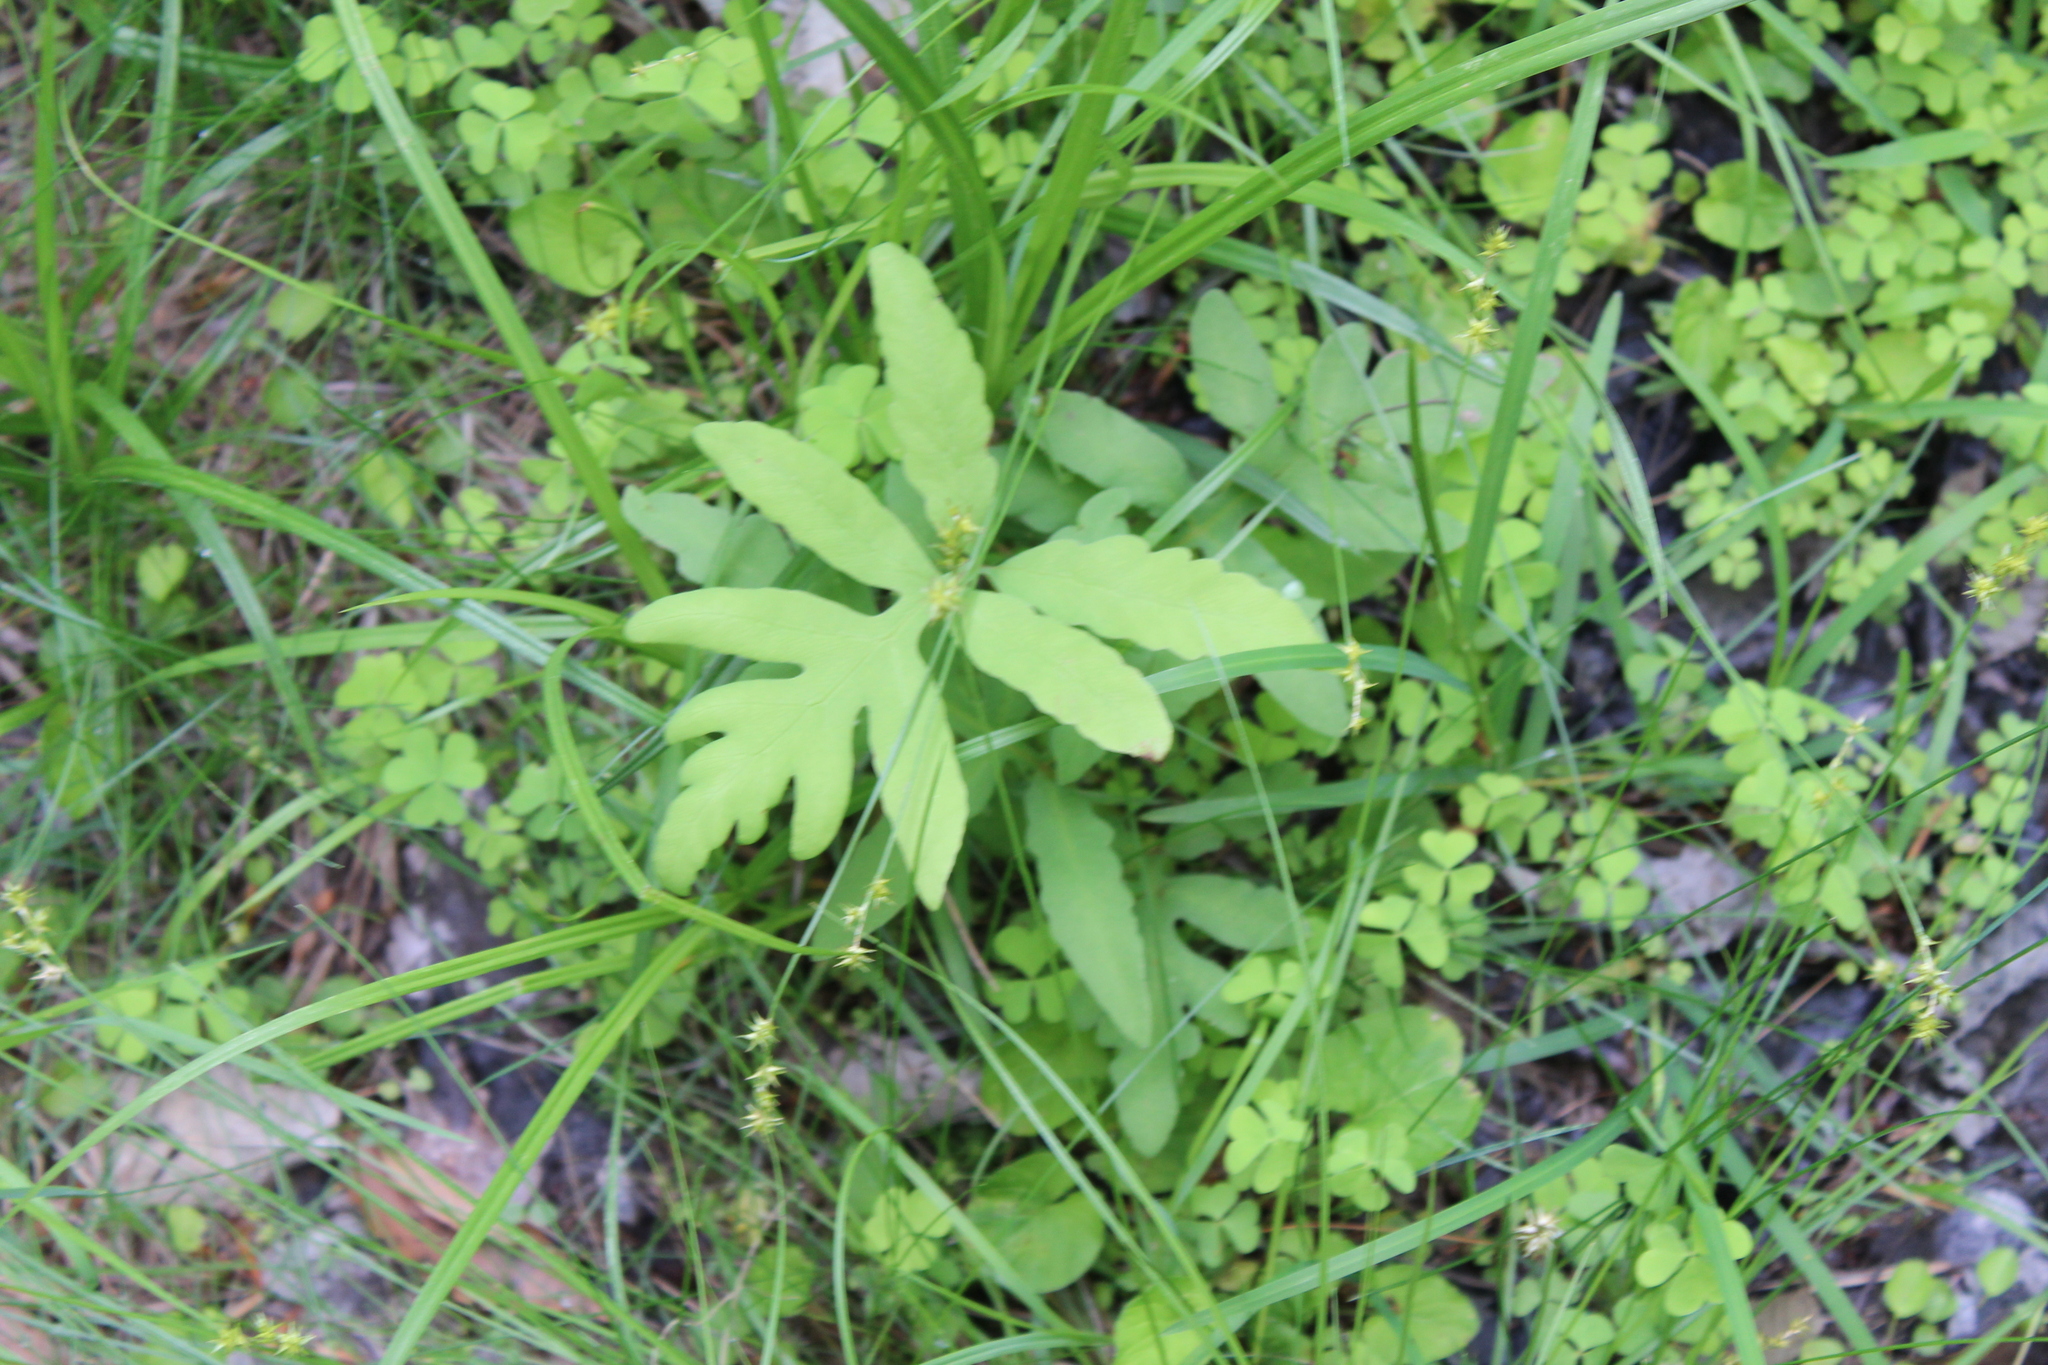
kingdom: Plantae
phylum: Tracheophyta
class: Polypodiopsida
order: Polypodiales
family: Onocleaceae
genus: Onoclea
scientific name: Onoclea sensibilis
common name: Sensitive fern
